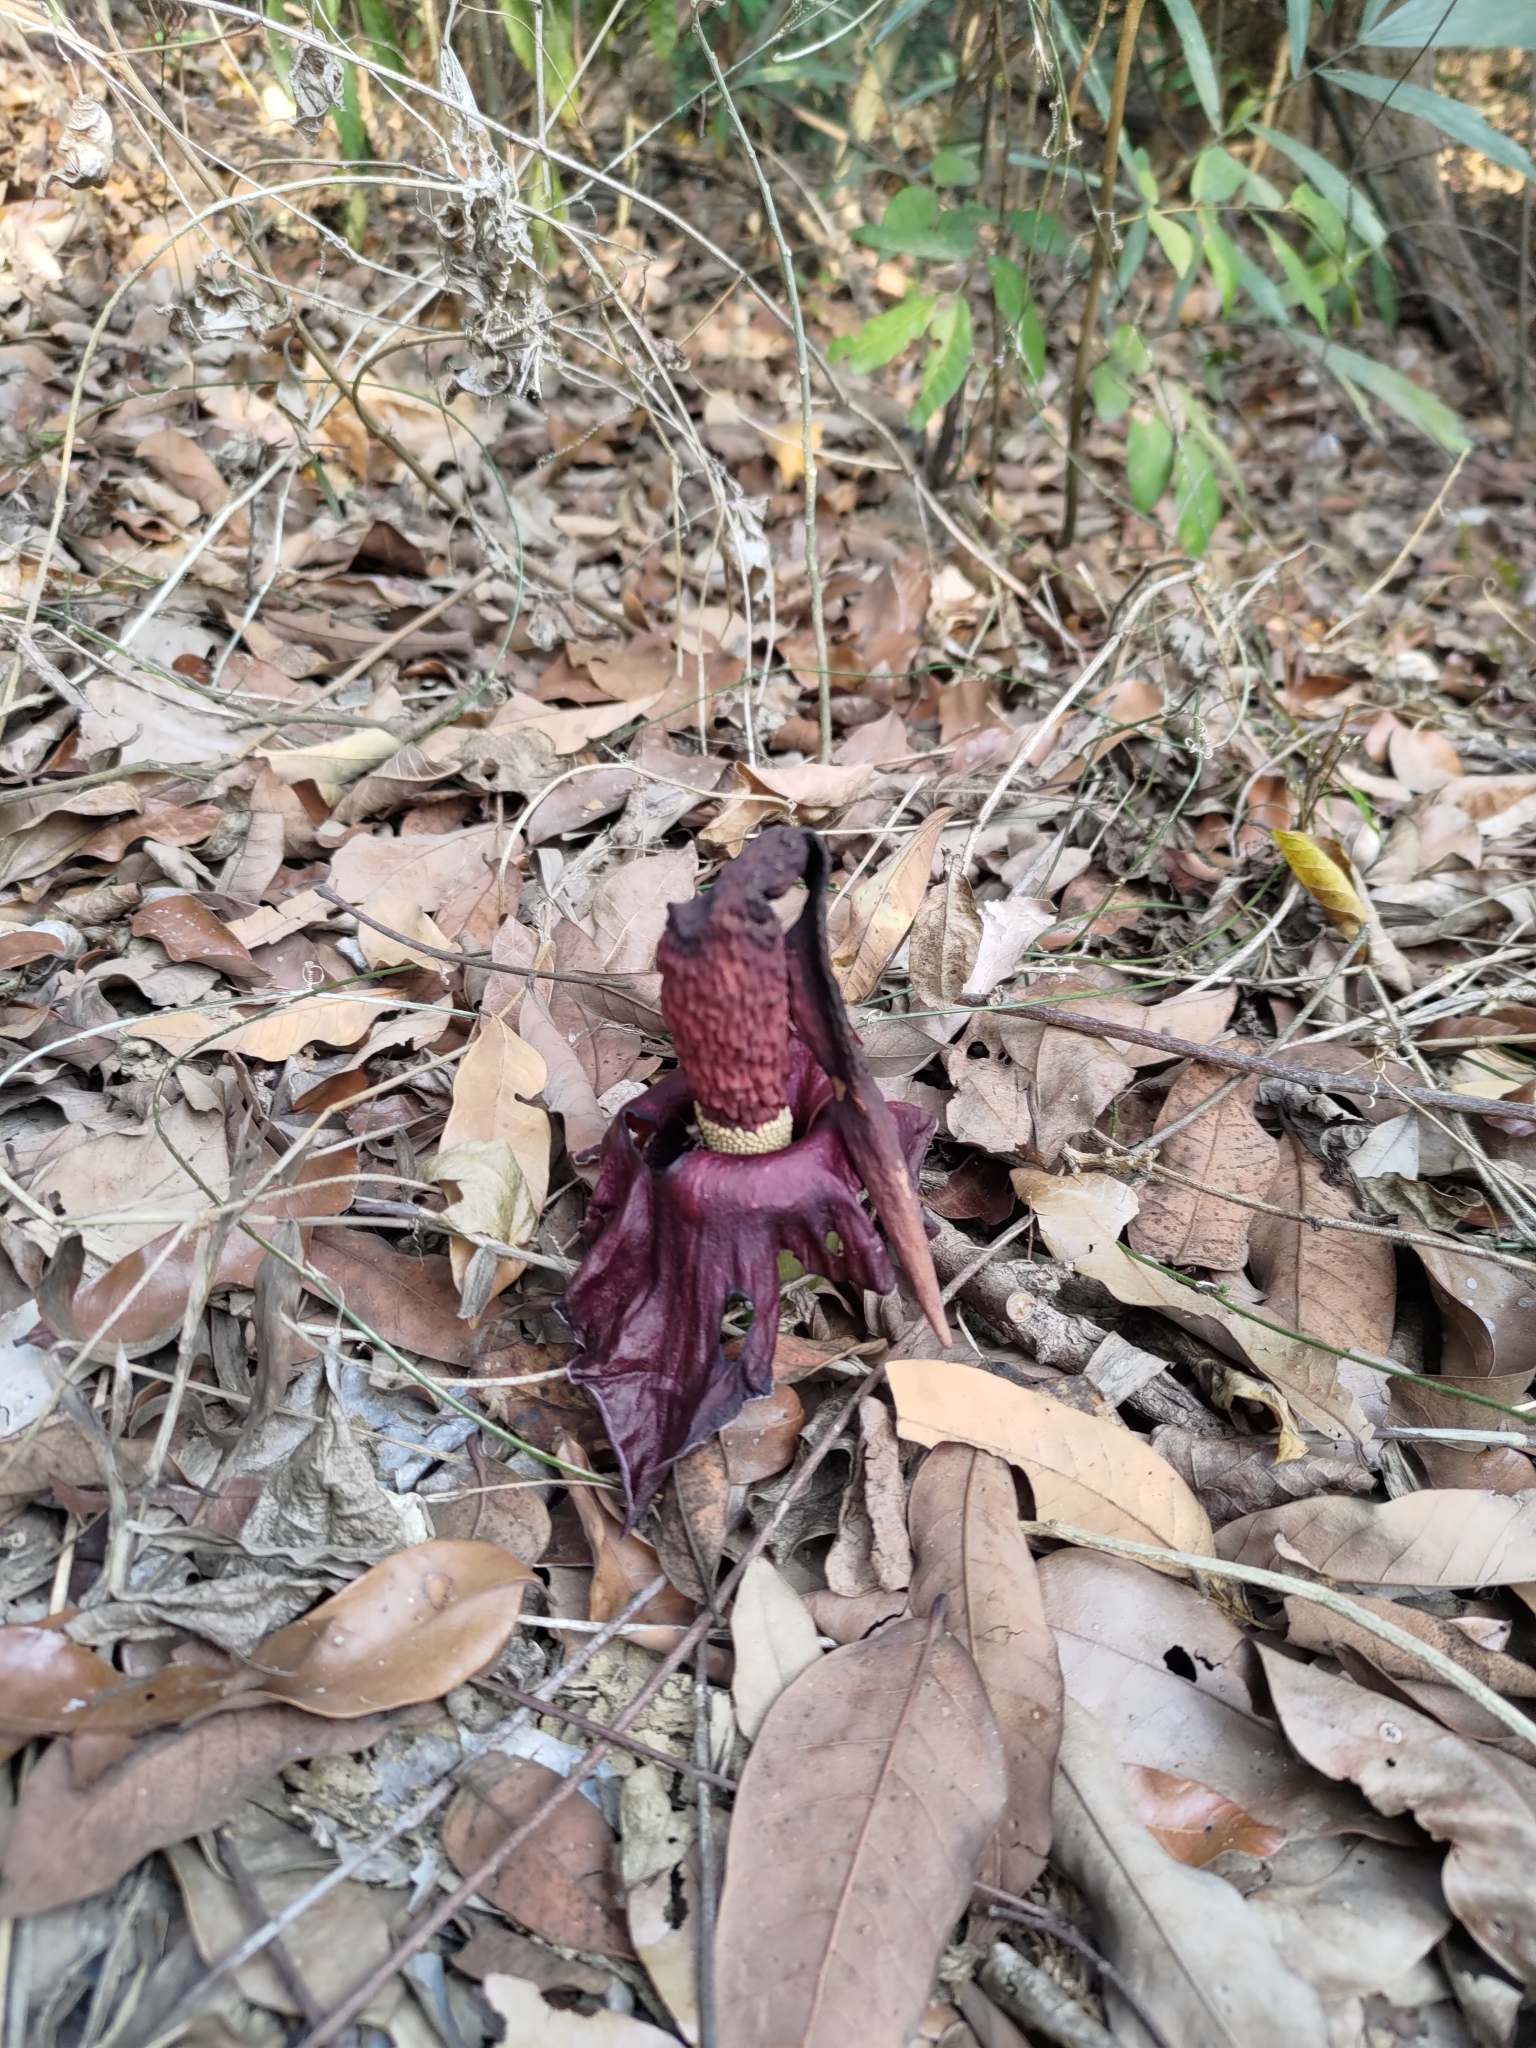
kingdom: Plantae
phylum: Tracheophyta
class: Liliopsida
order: Alismatales
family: Araceae
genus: Amorphophallus
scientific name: Amorphophallus henryi
